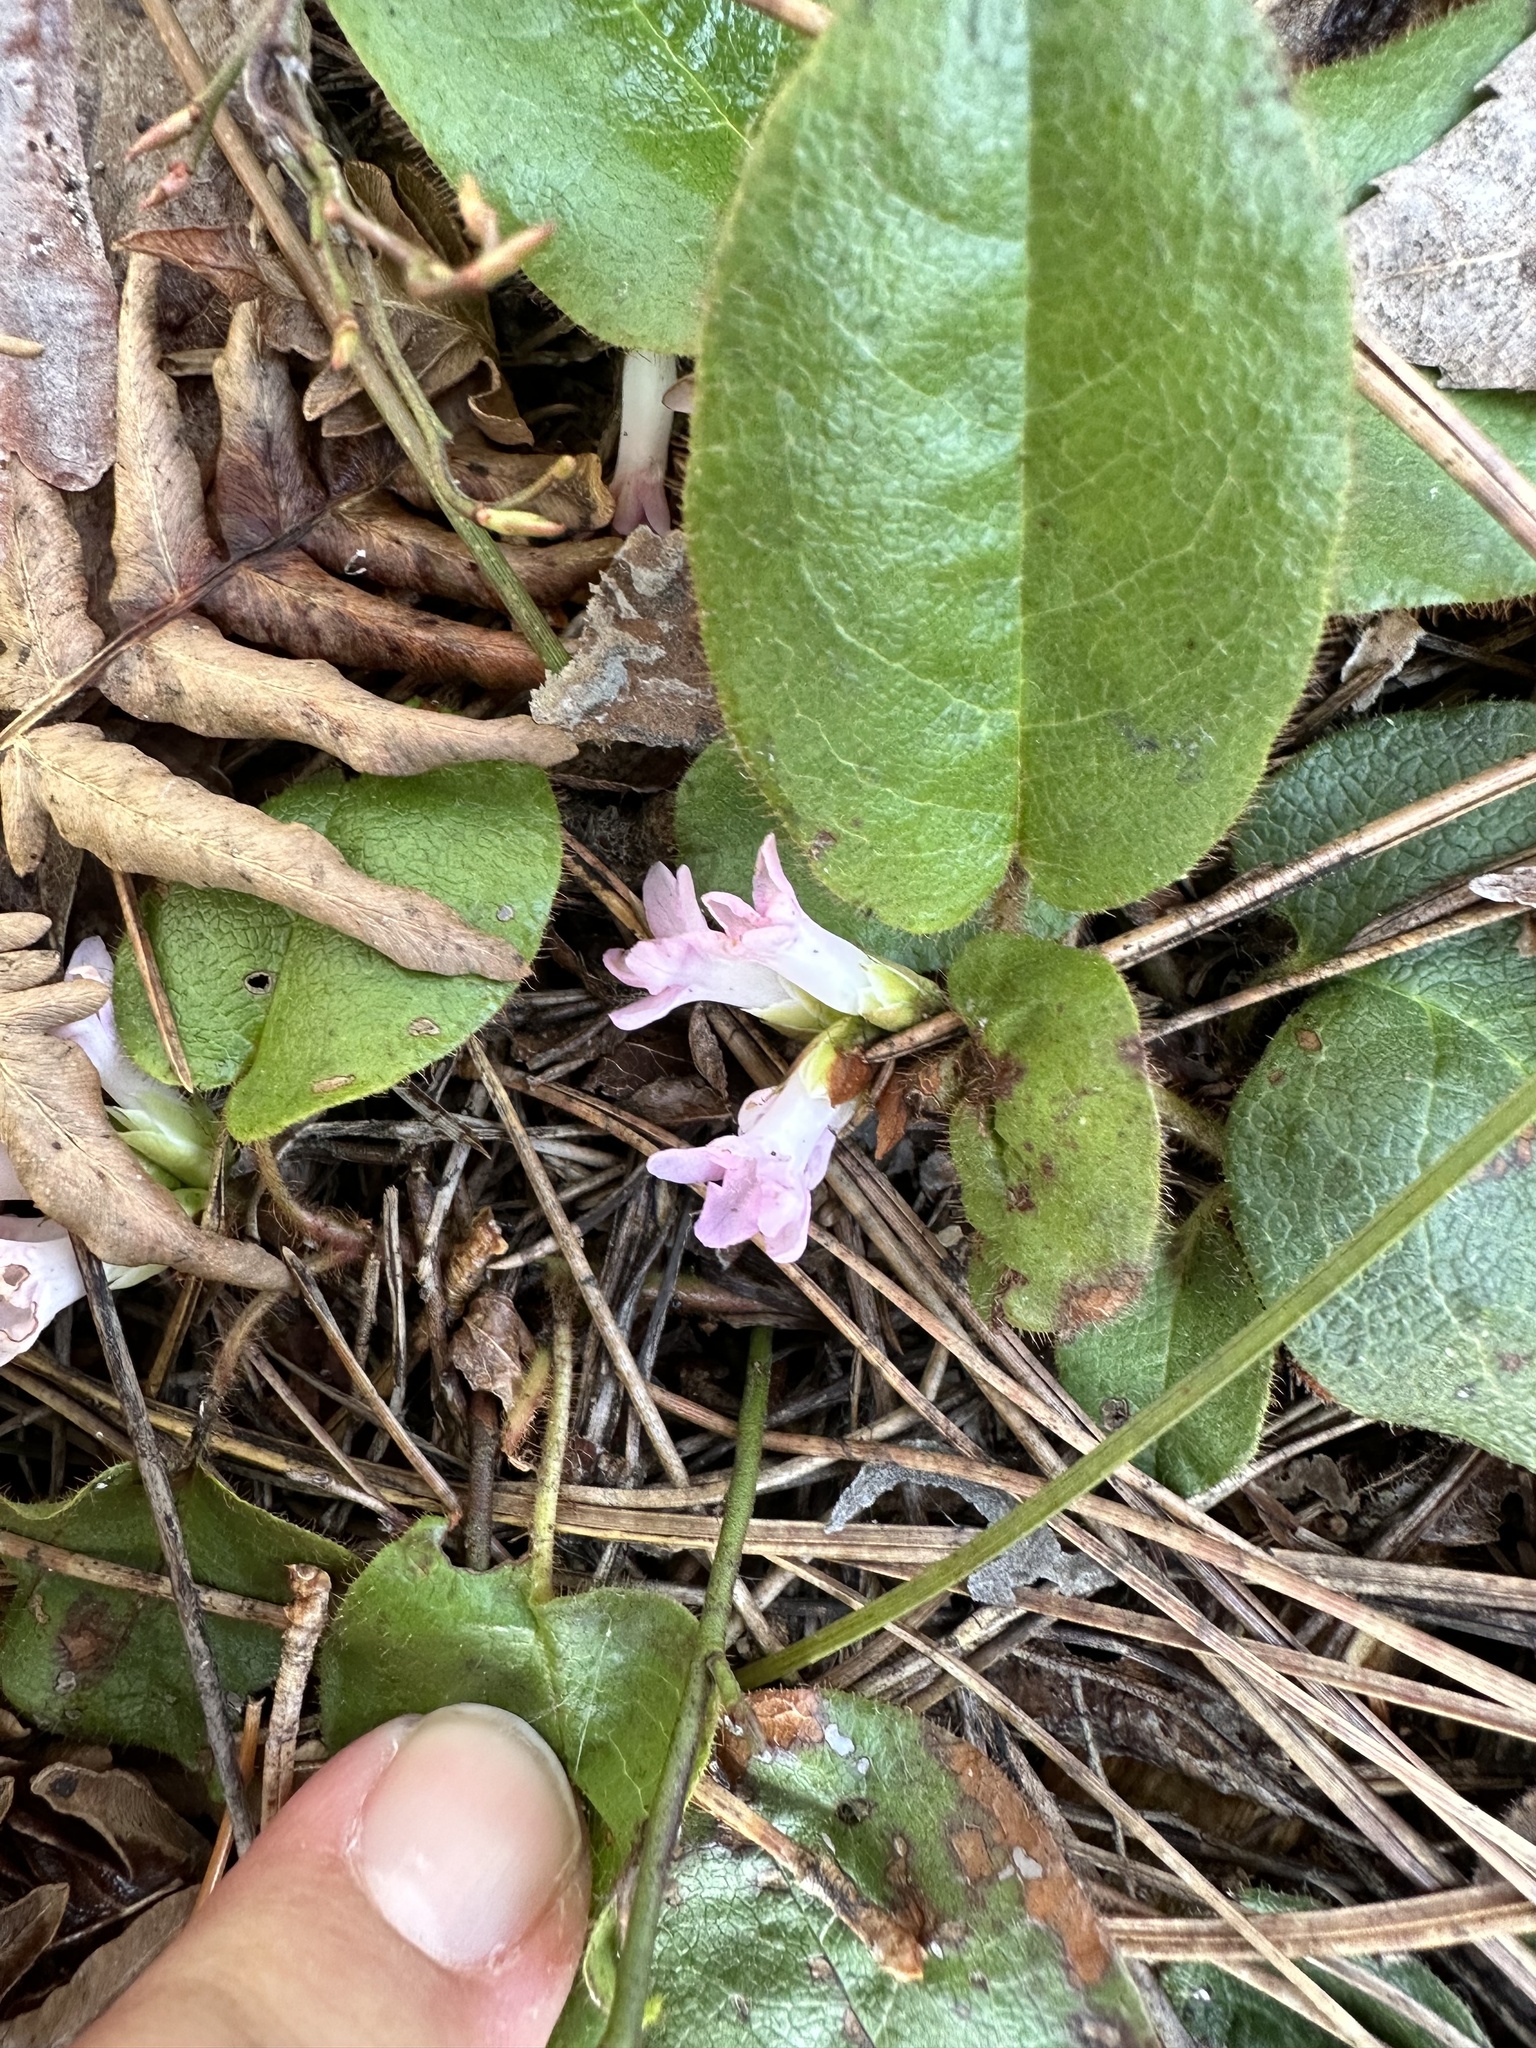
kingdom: Plantae
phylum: Tracheophyta
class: Magnoliopsida
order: Ericales
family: Ericaceae
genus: Epigaea
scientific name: Epigaea repens
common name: Gravelroot
